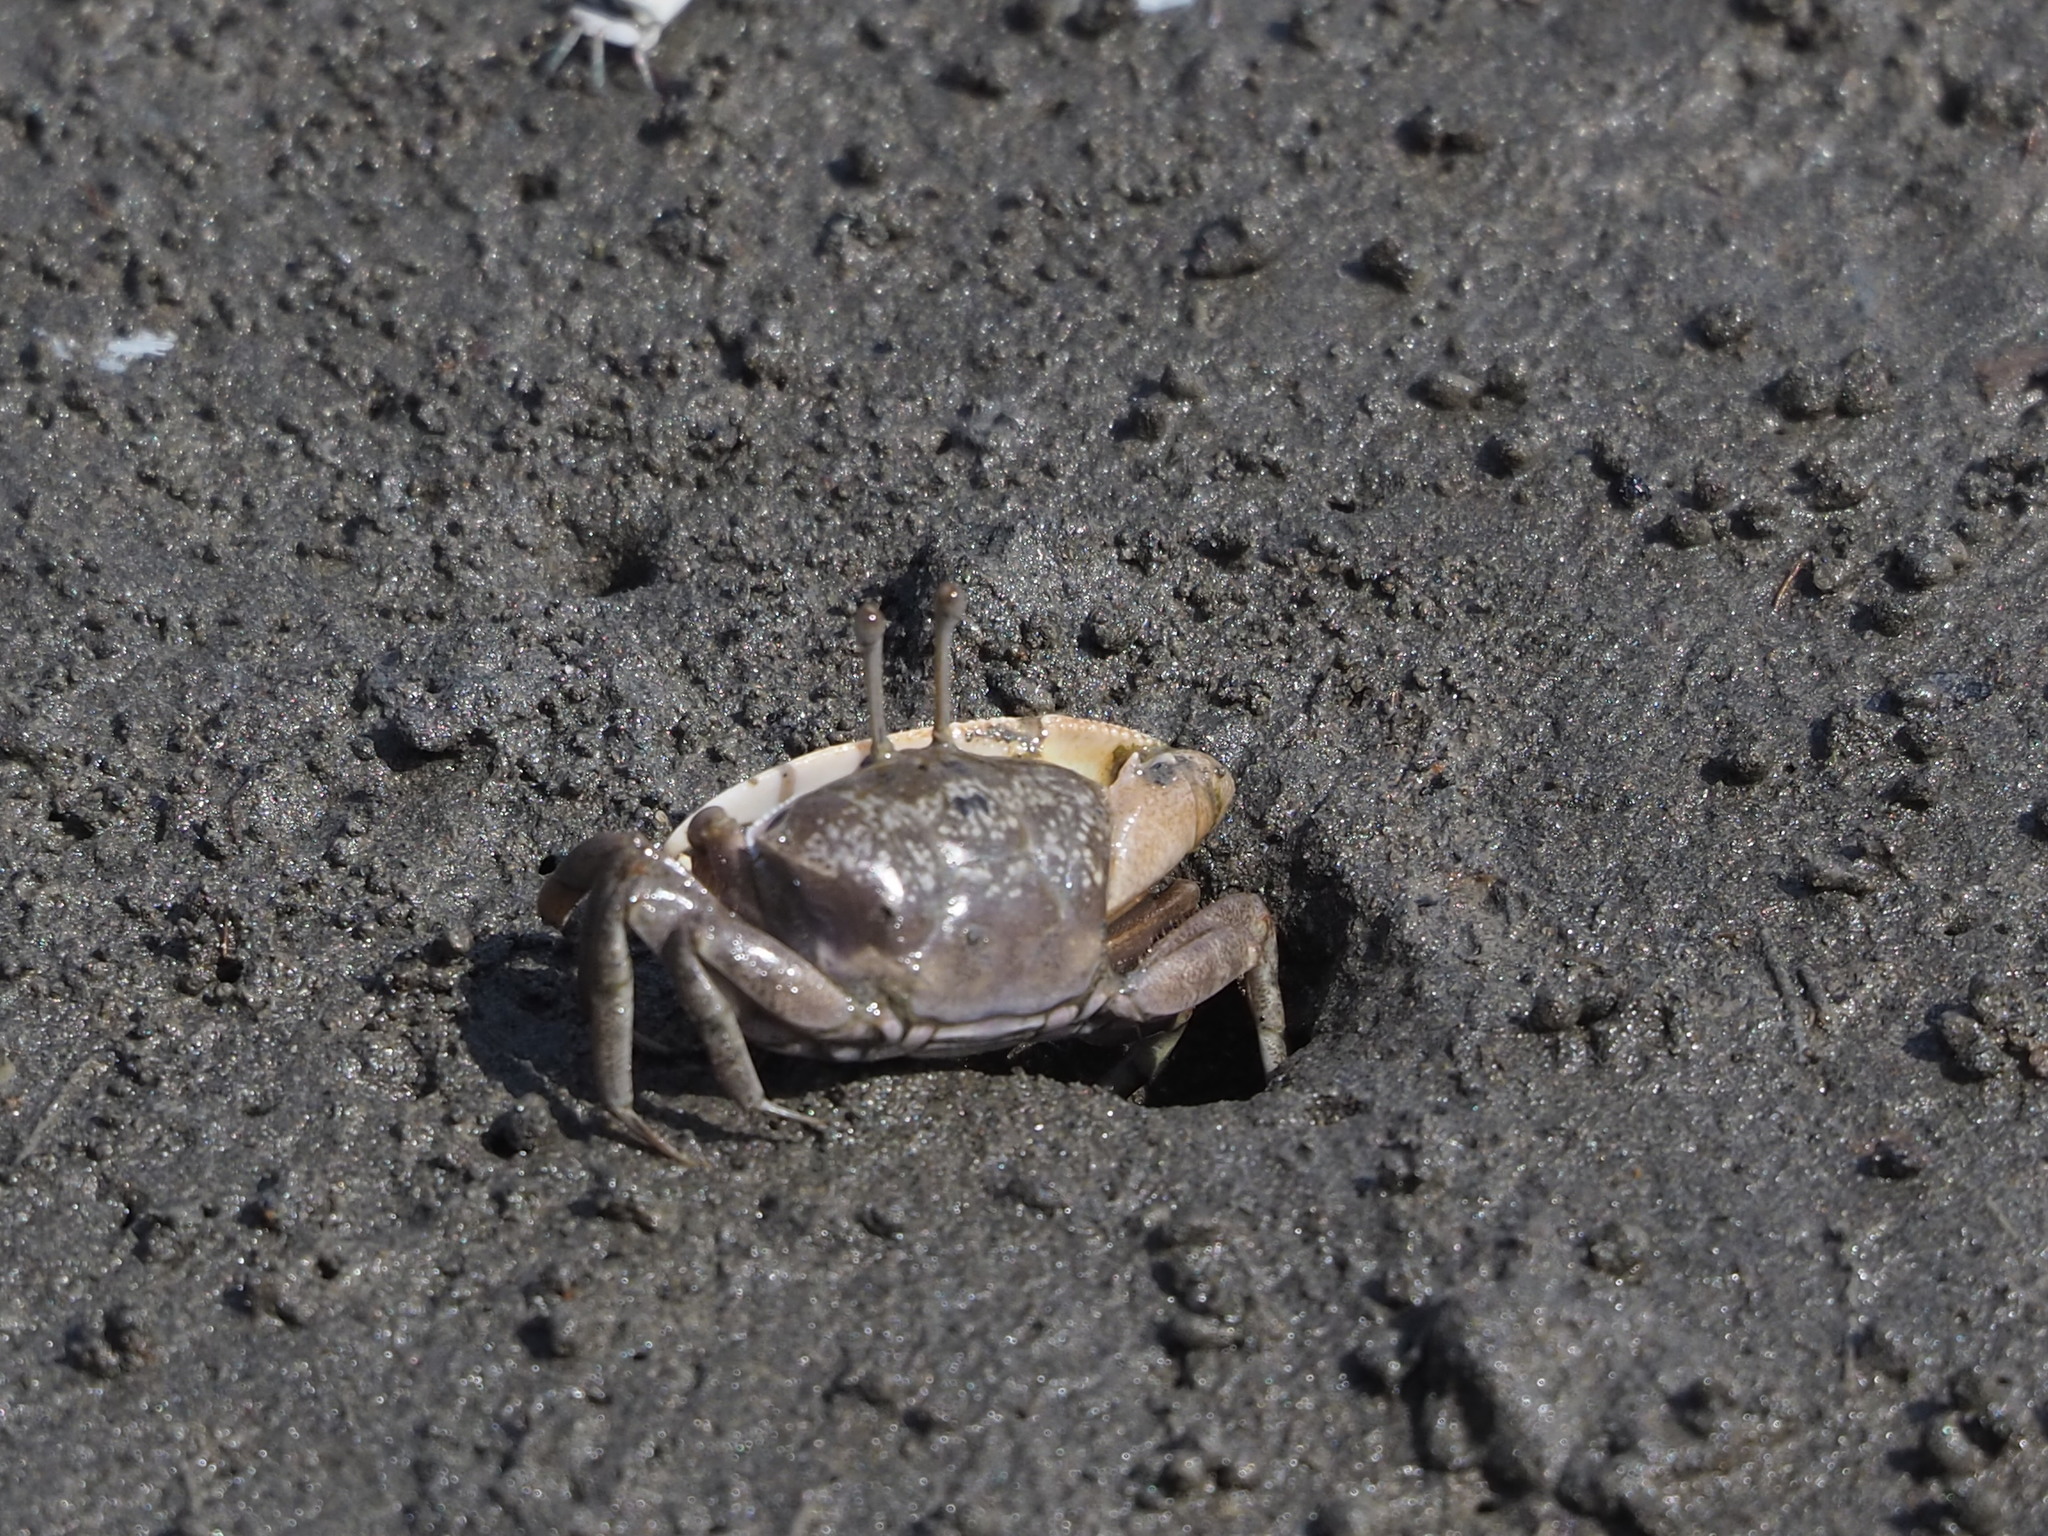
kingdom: Animalia
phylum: Arthropoda
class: Malacostraca
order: Decapoda
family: Ocypodidae
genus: Gelasimus
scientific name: Gelasimus borealis
